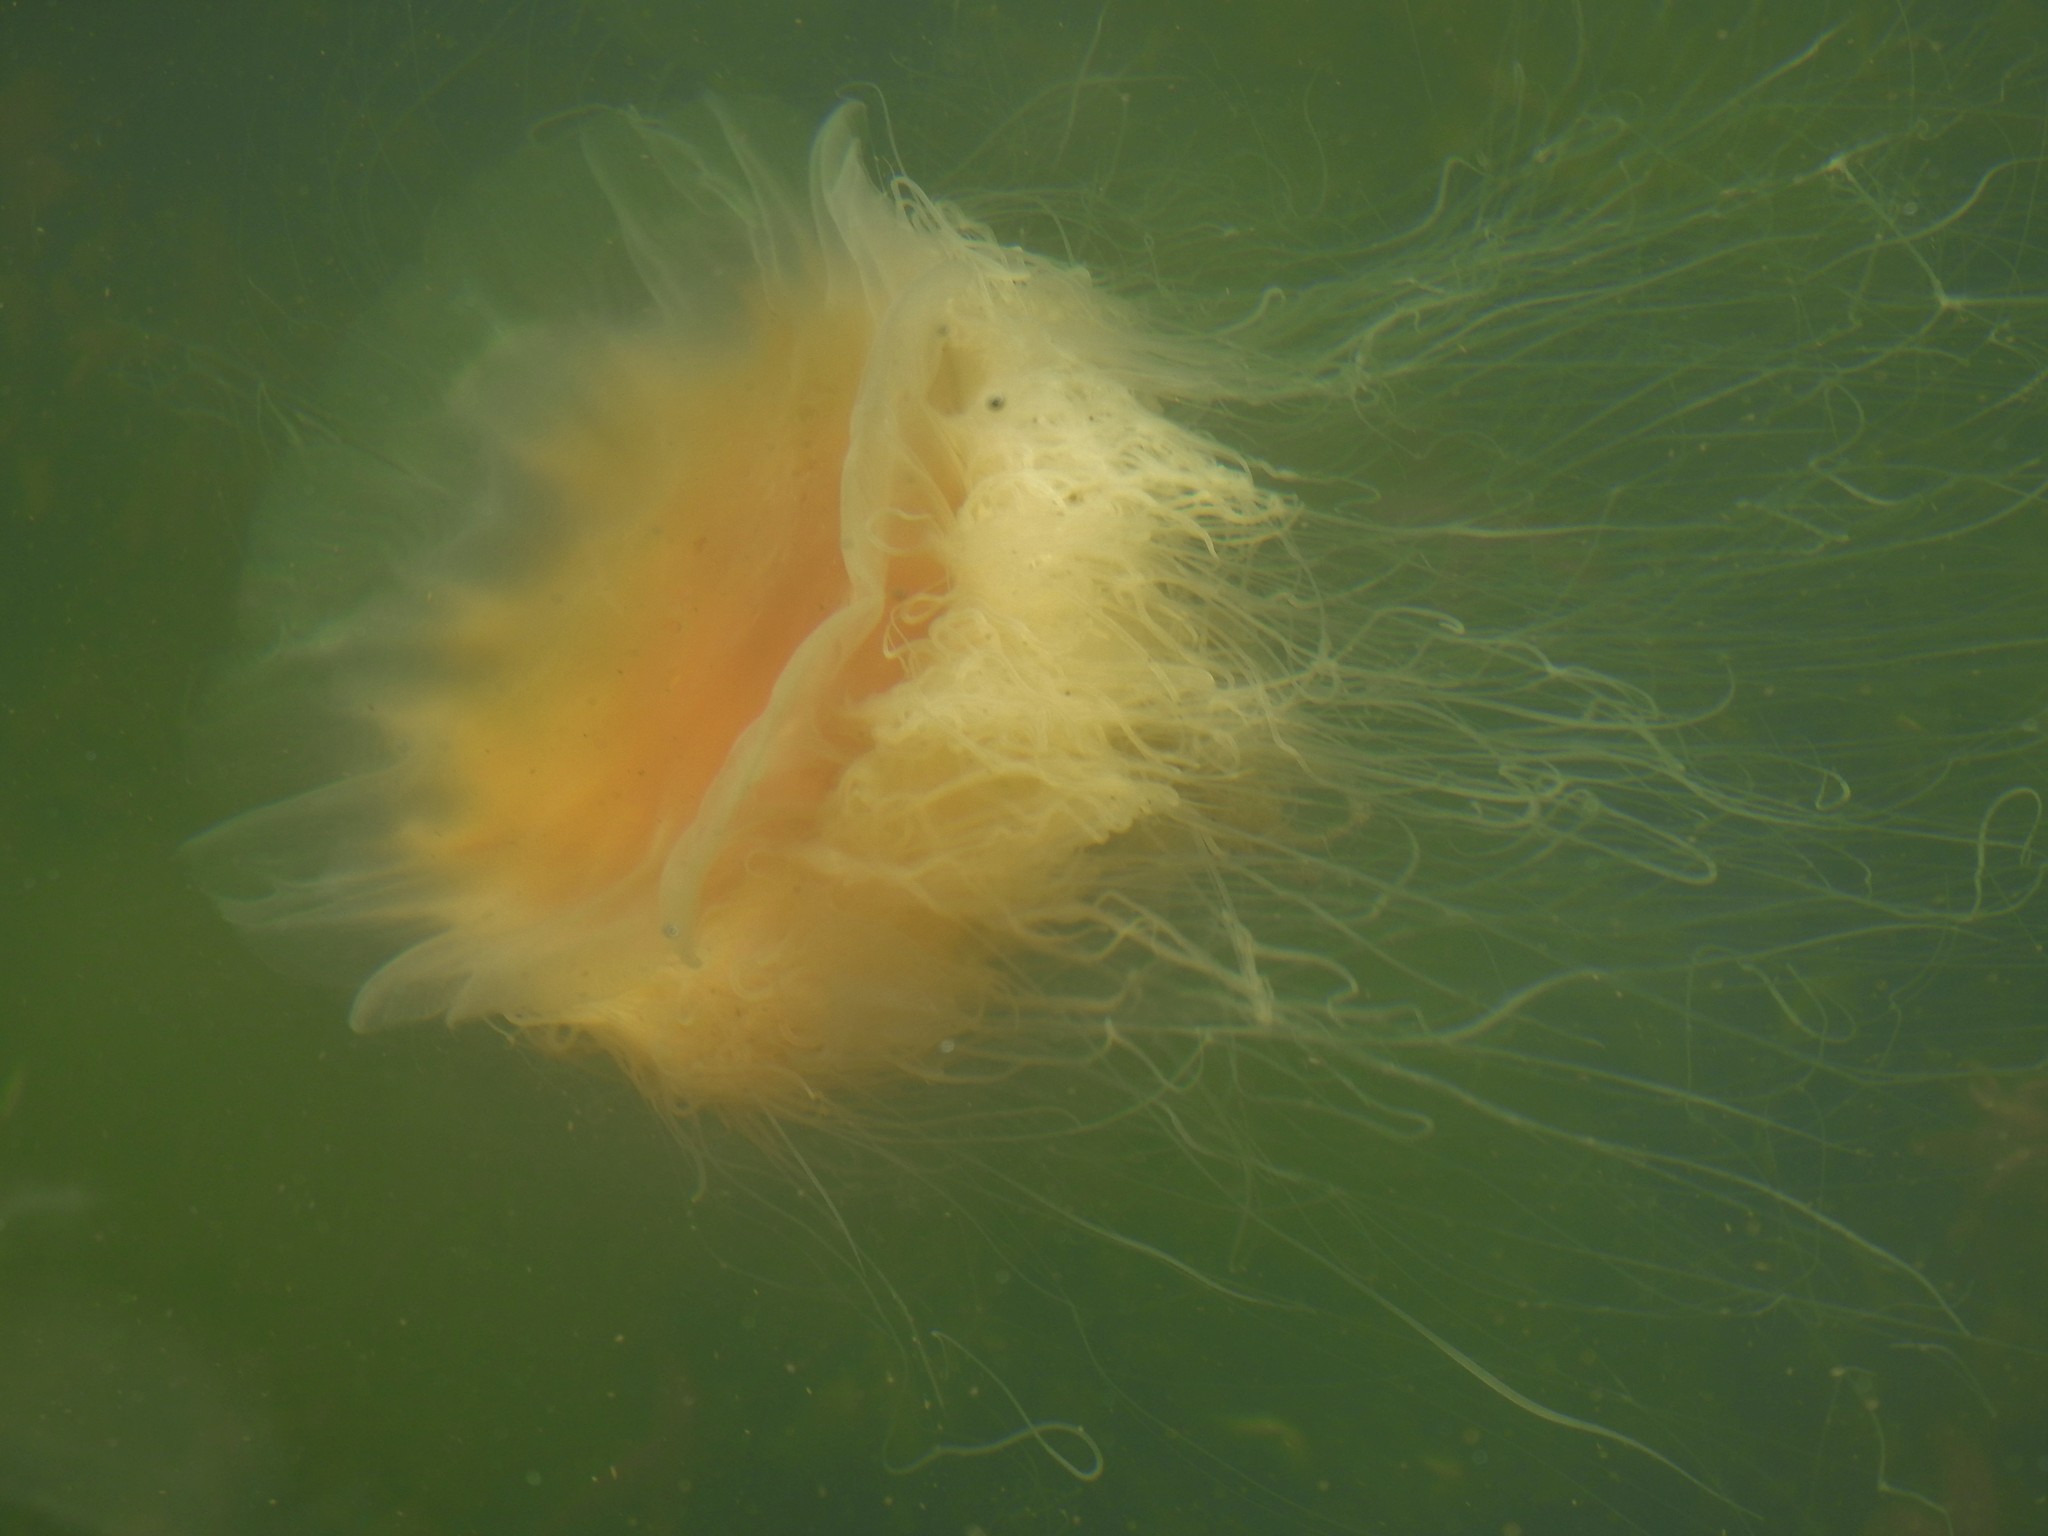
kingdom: Animalia
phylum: Cnidaria
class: Scyphozoa
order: Semaeostomeae
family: Cyaneidae
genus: Cyanea
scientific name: Cyanea capillata
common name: Lion's mane jellyfish
